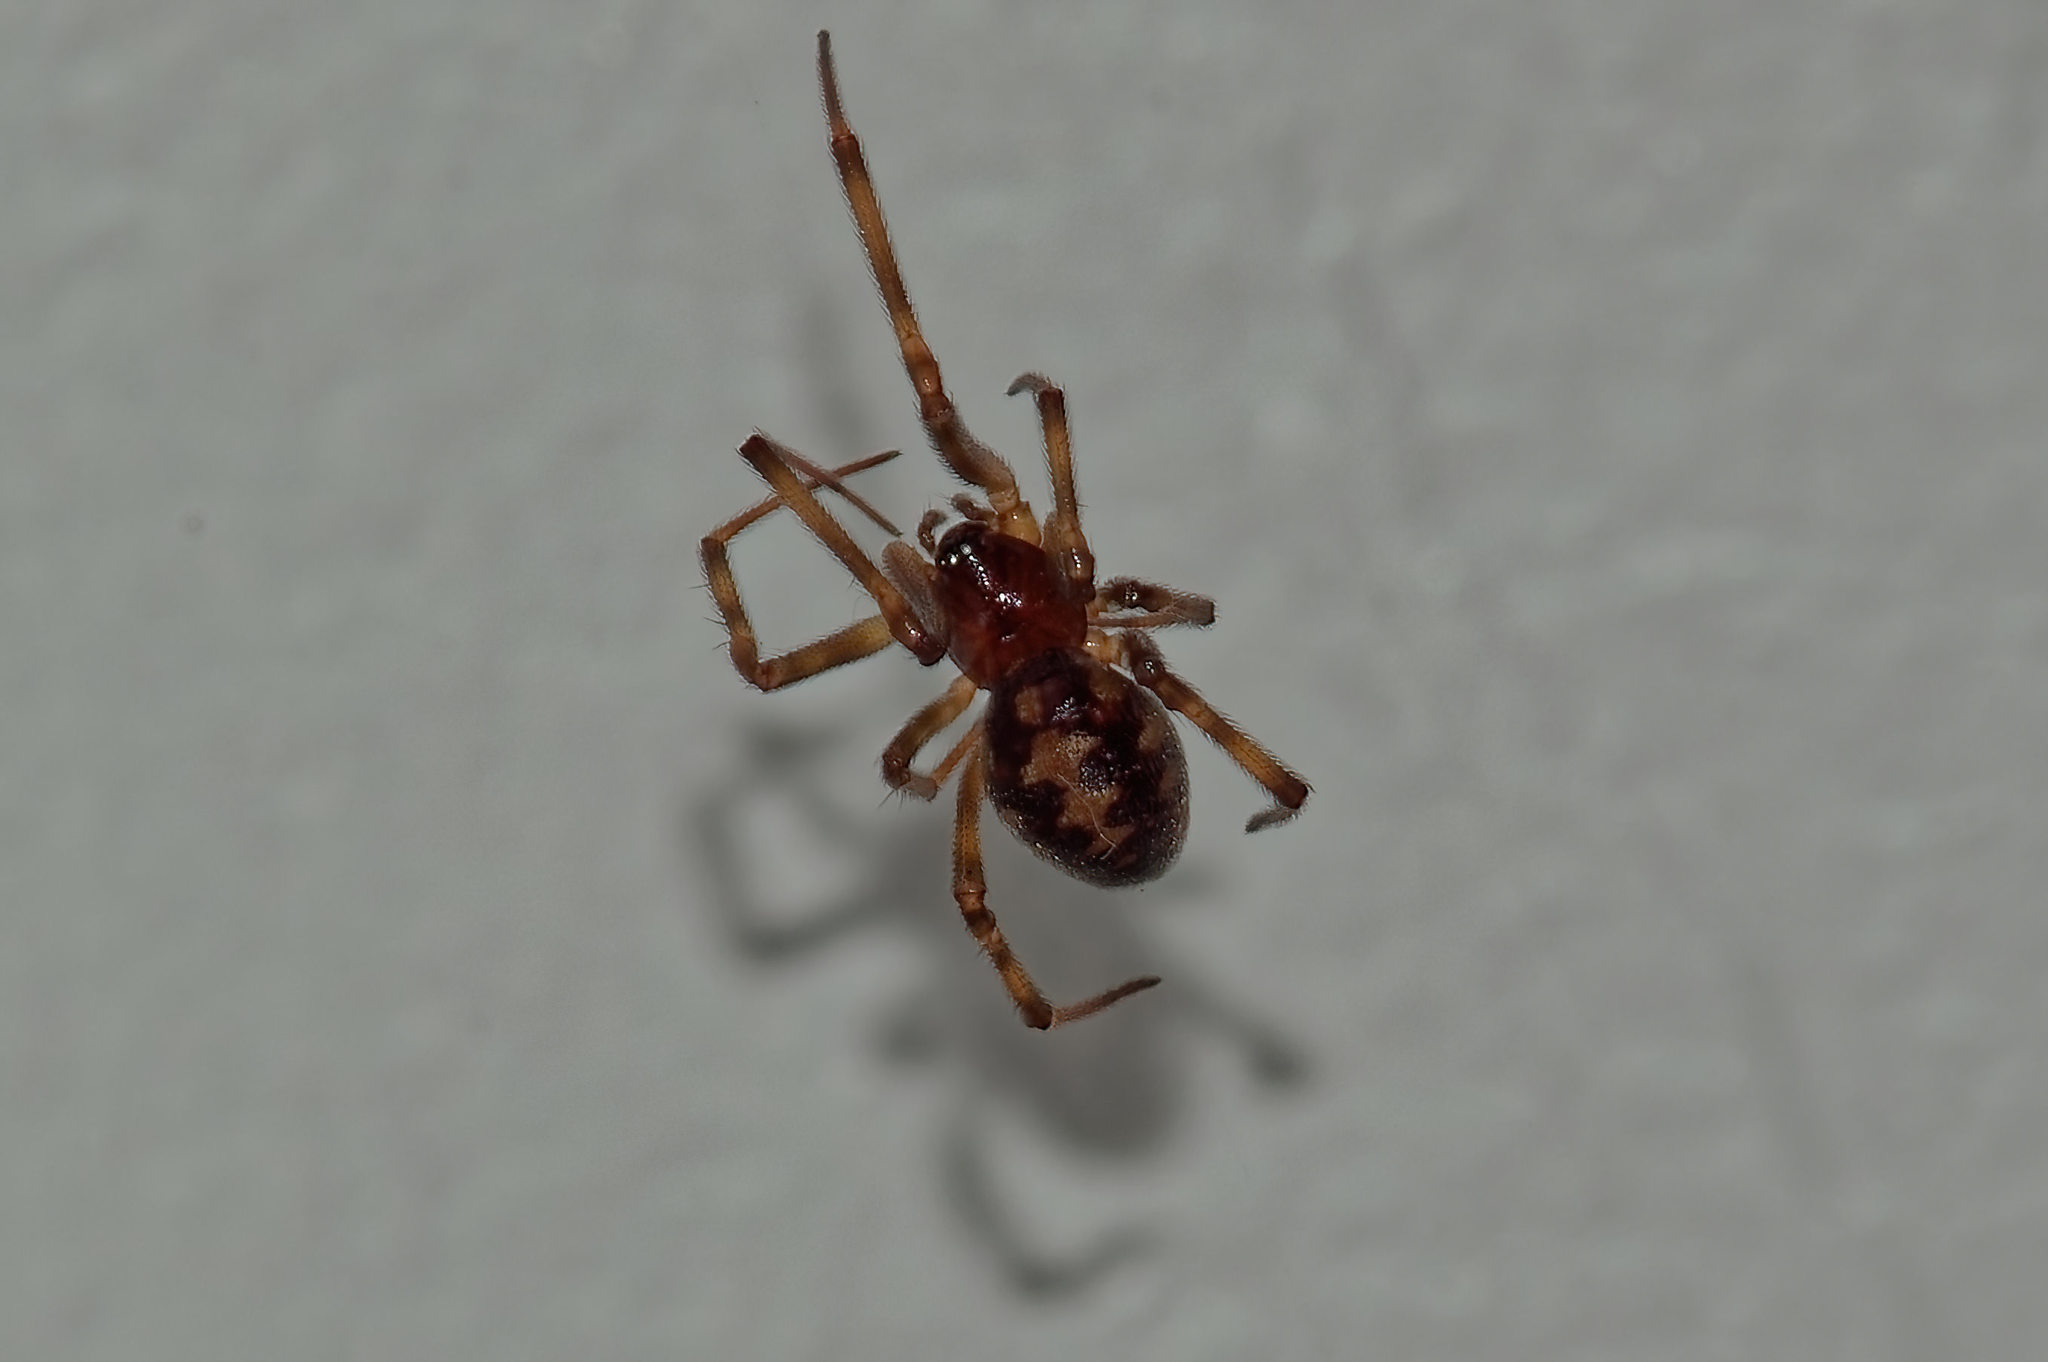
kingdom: Animalia
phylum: Arthropoda
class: Arachnida
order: Araneae
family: Theridiidae
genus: Steatoda
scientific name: Steatoda triangulosa
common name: Triangulate bud spider
